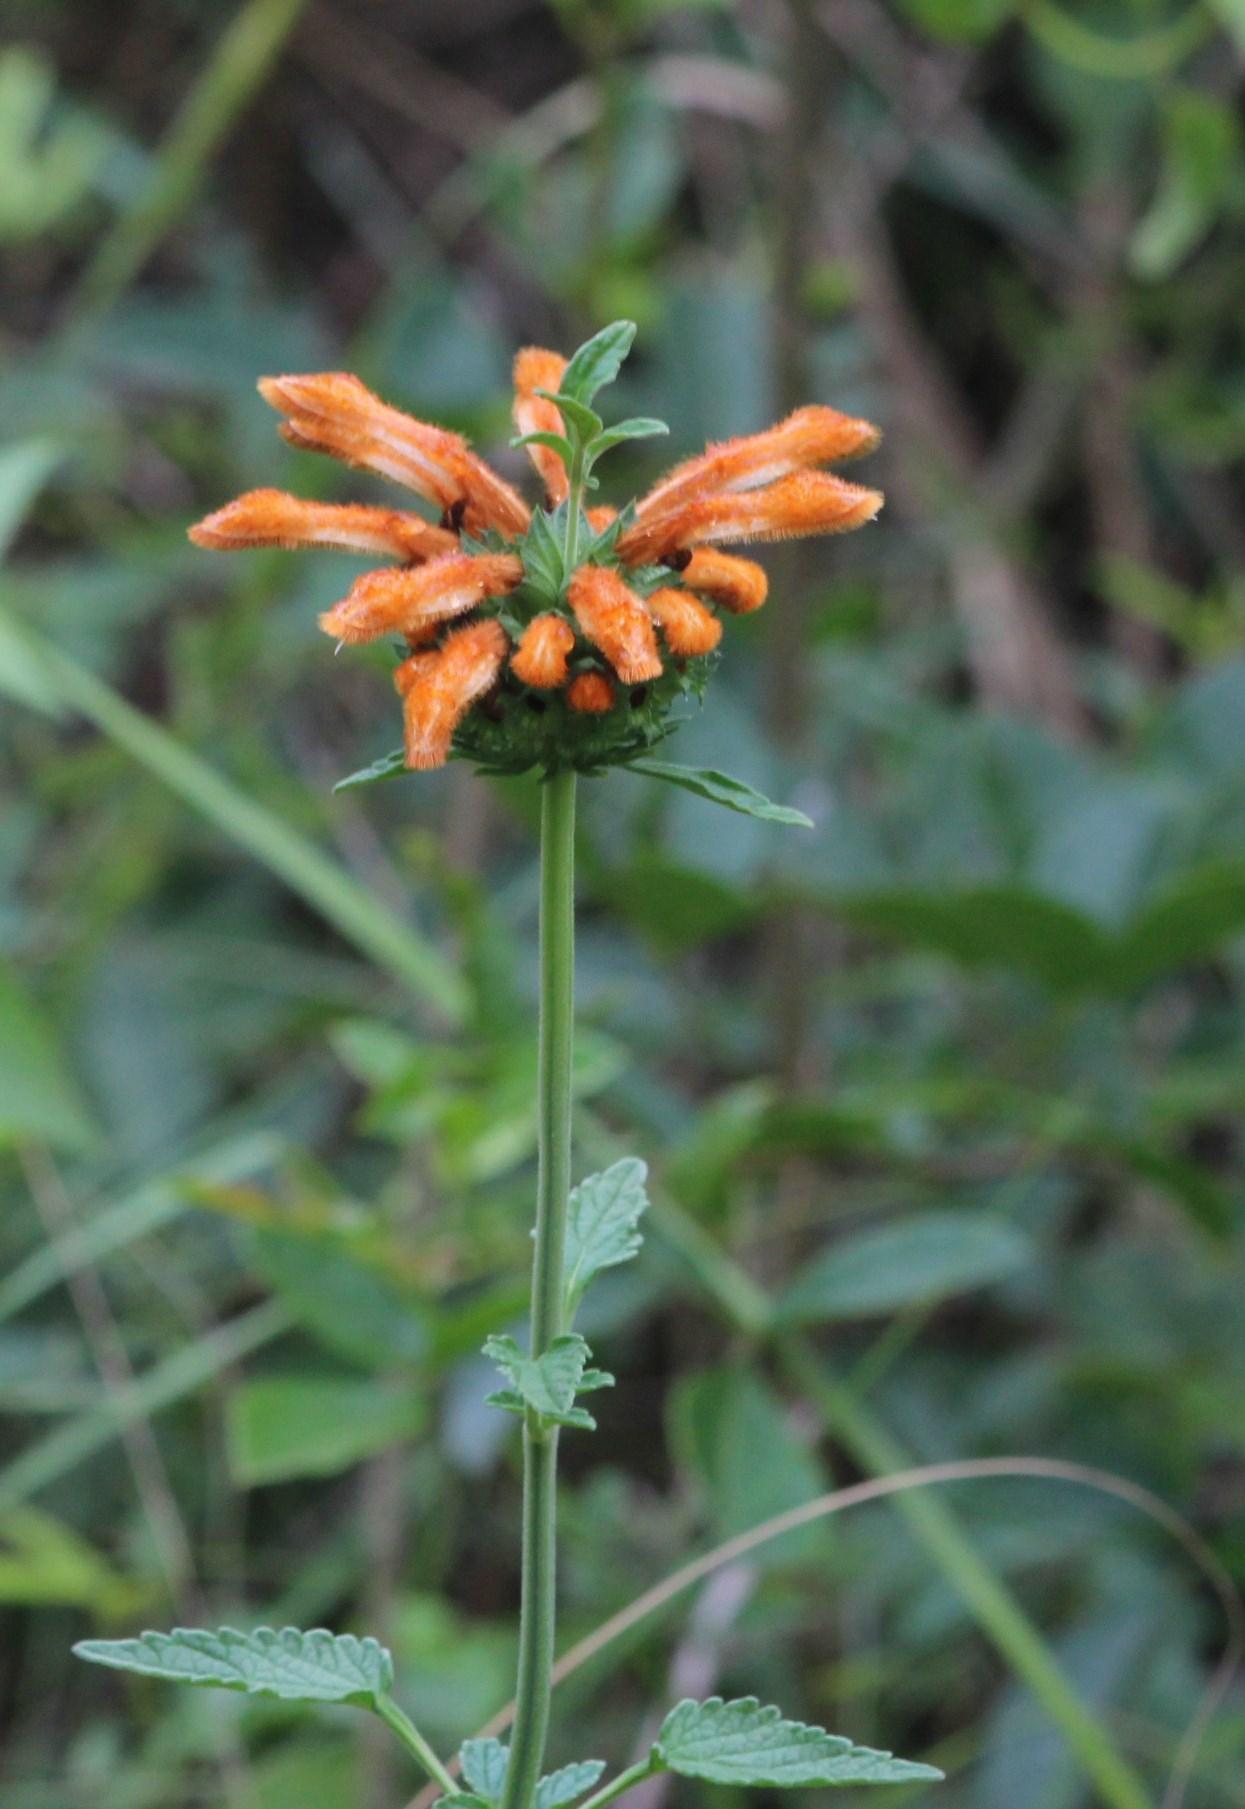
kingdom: Plantae
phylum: Tracheophyta
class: Magnoliopsida
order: Lamiales
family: Lamiaceae
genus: Leonotis
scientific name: Leonotis ocymifolia
